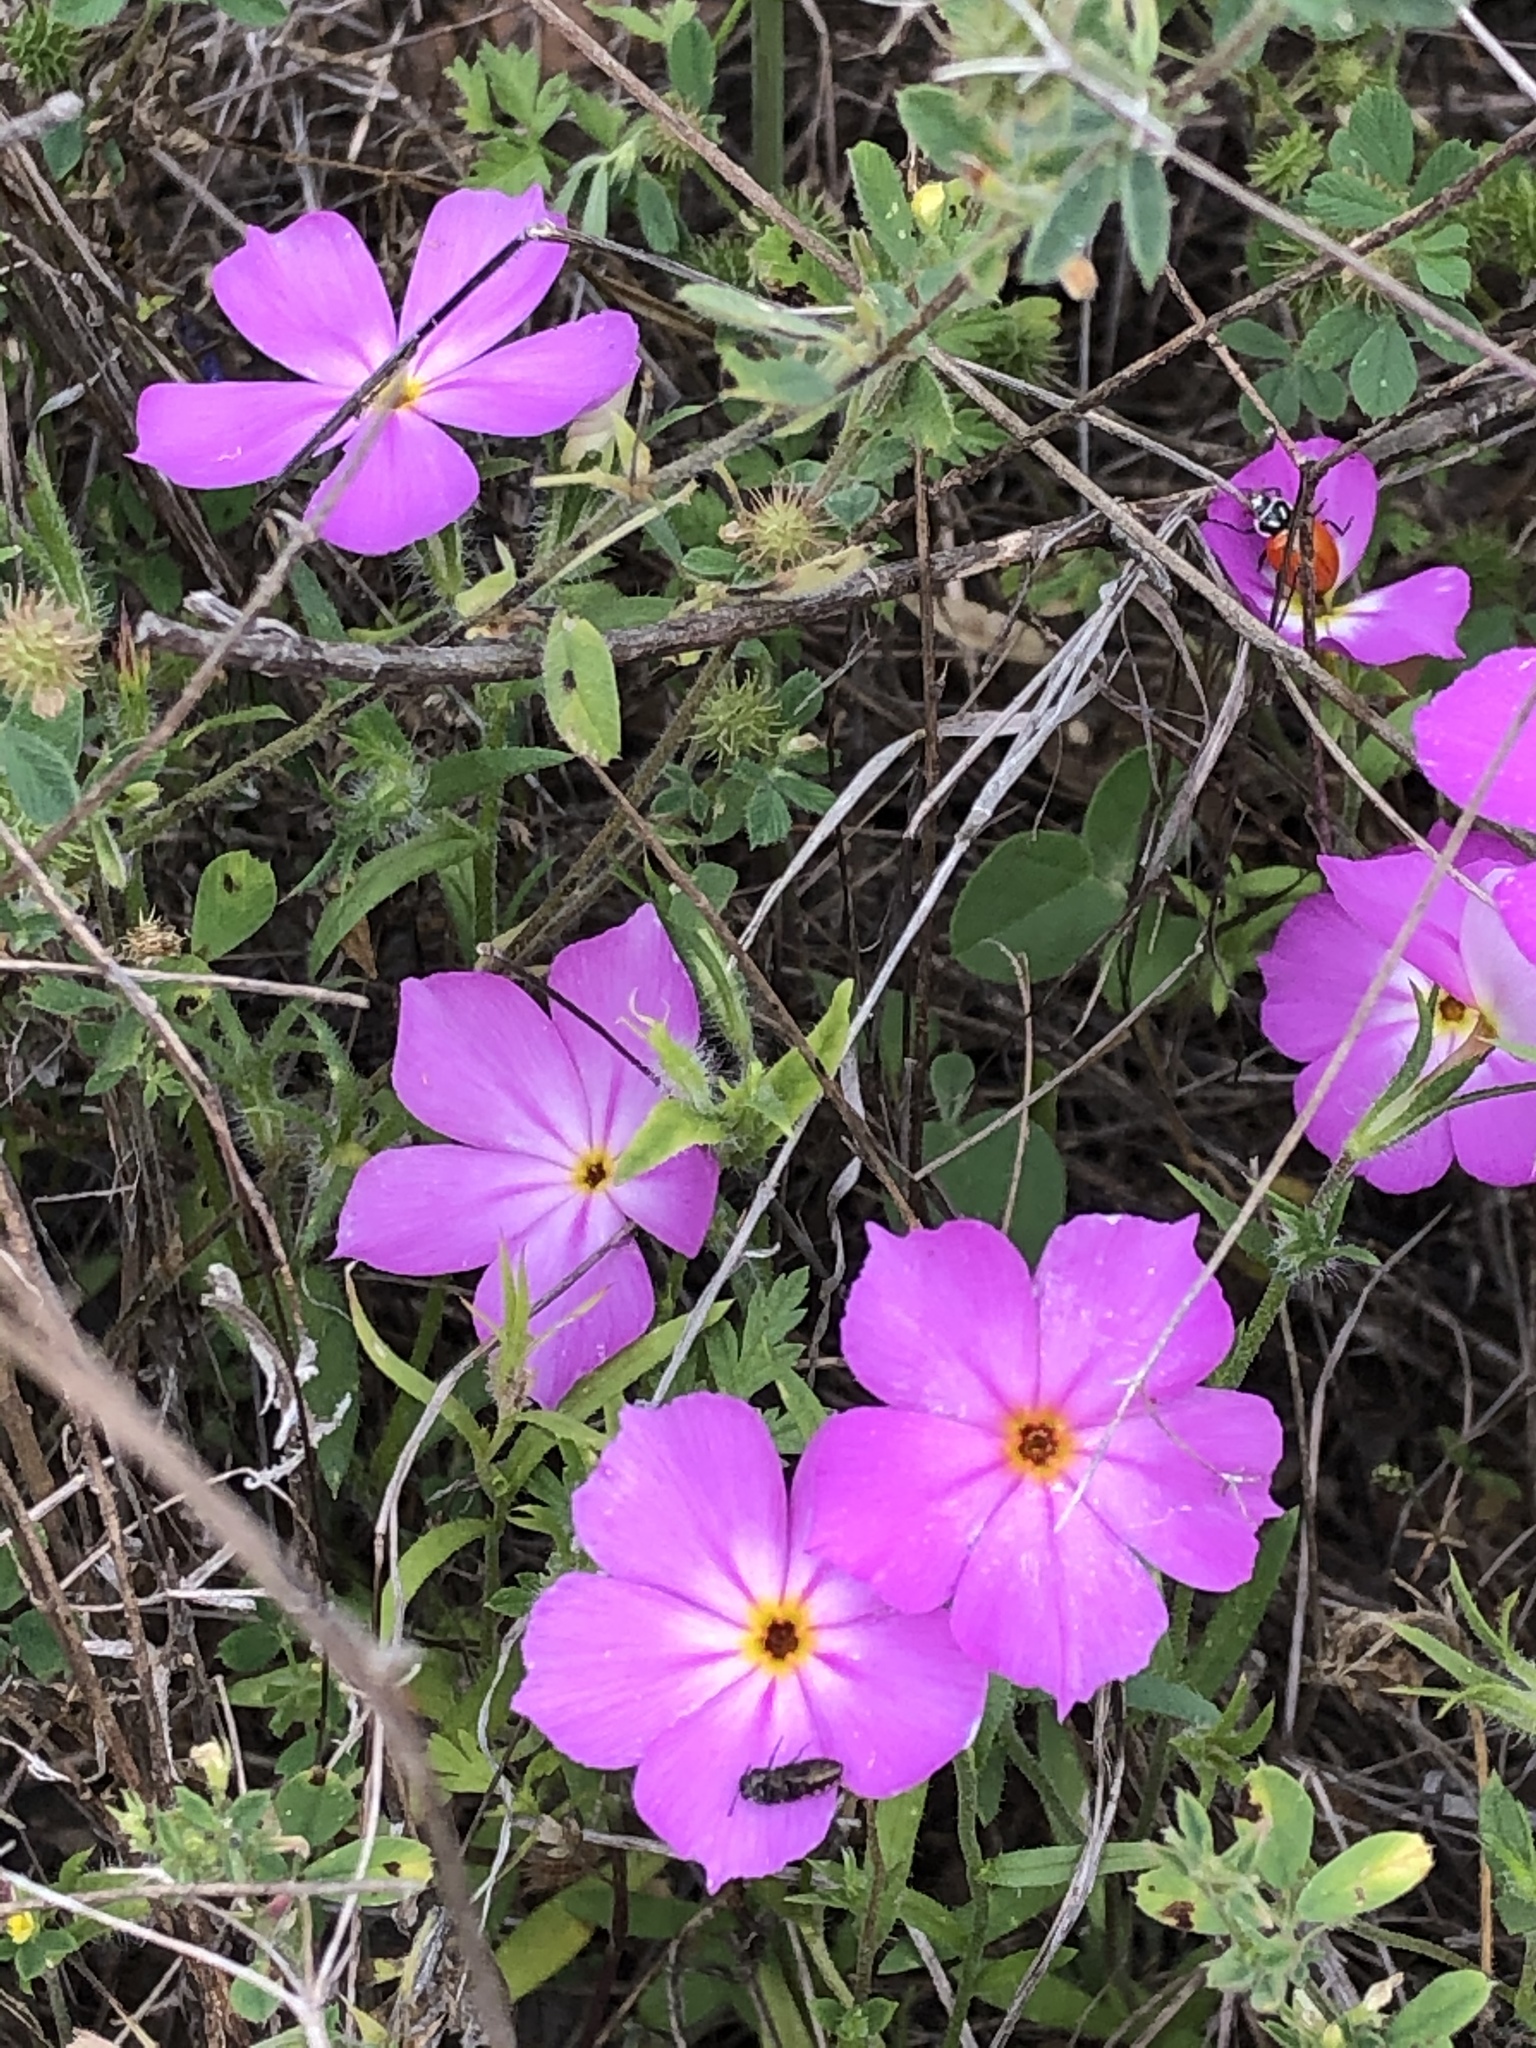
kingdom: Plantae
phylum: Tracheophyta
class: Magnoliopsida
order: Ericales
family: Polemoniaceae
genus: Phlox
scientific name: Phlox roemeriana
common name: Roemer's phlox
